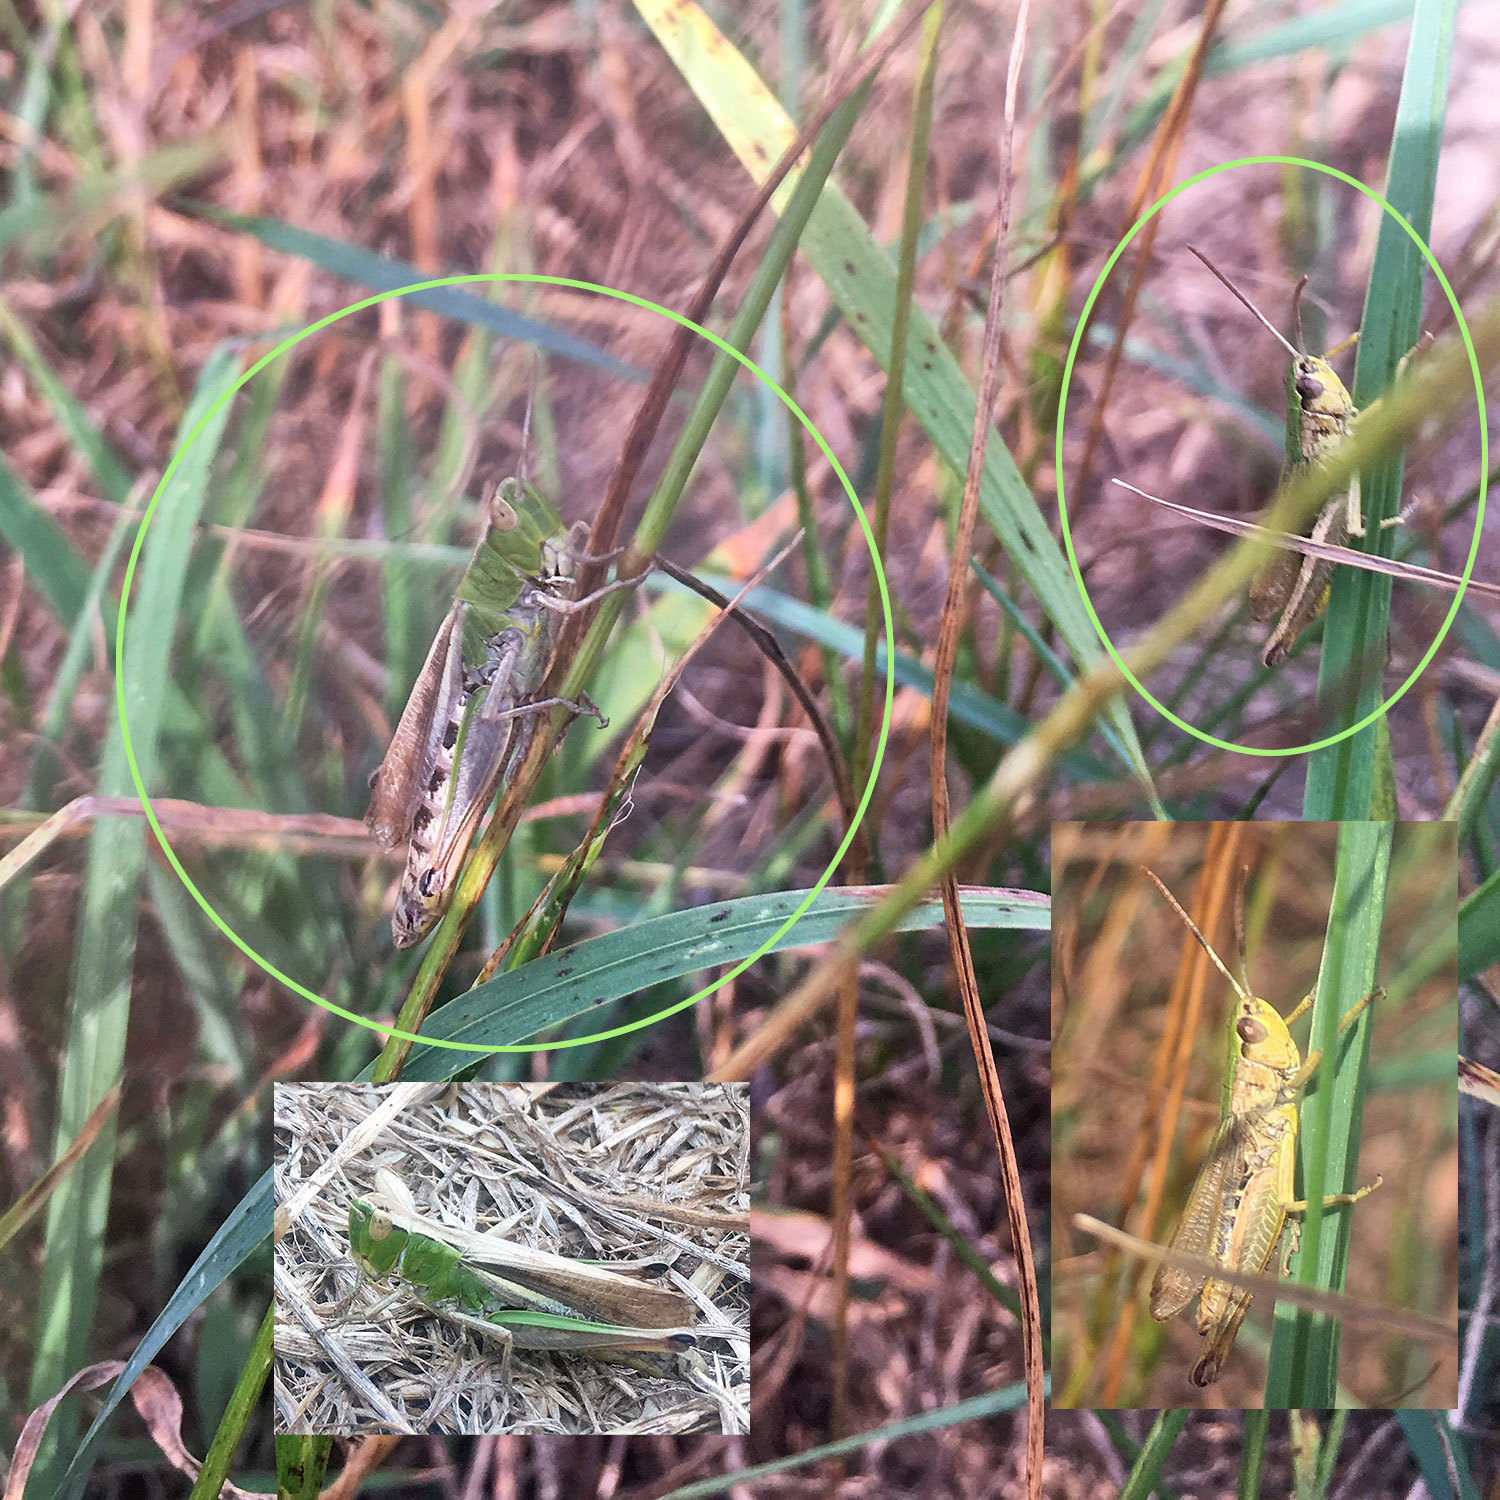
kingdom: Animalia
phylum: Arthropoda
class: Insecta
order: Orthoptera
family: Acrididae
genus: Pseudochorthippus
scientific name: Pseudochorthippus parallelus
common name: Meadow grasshopper
